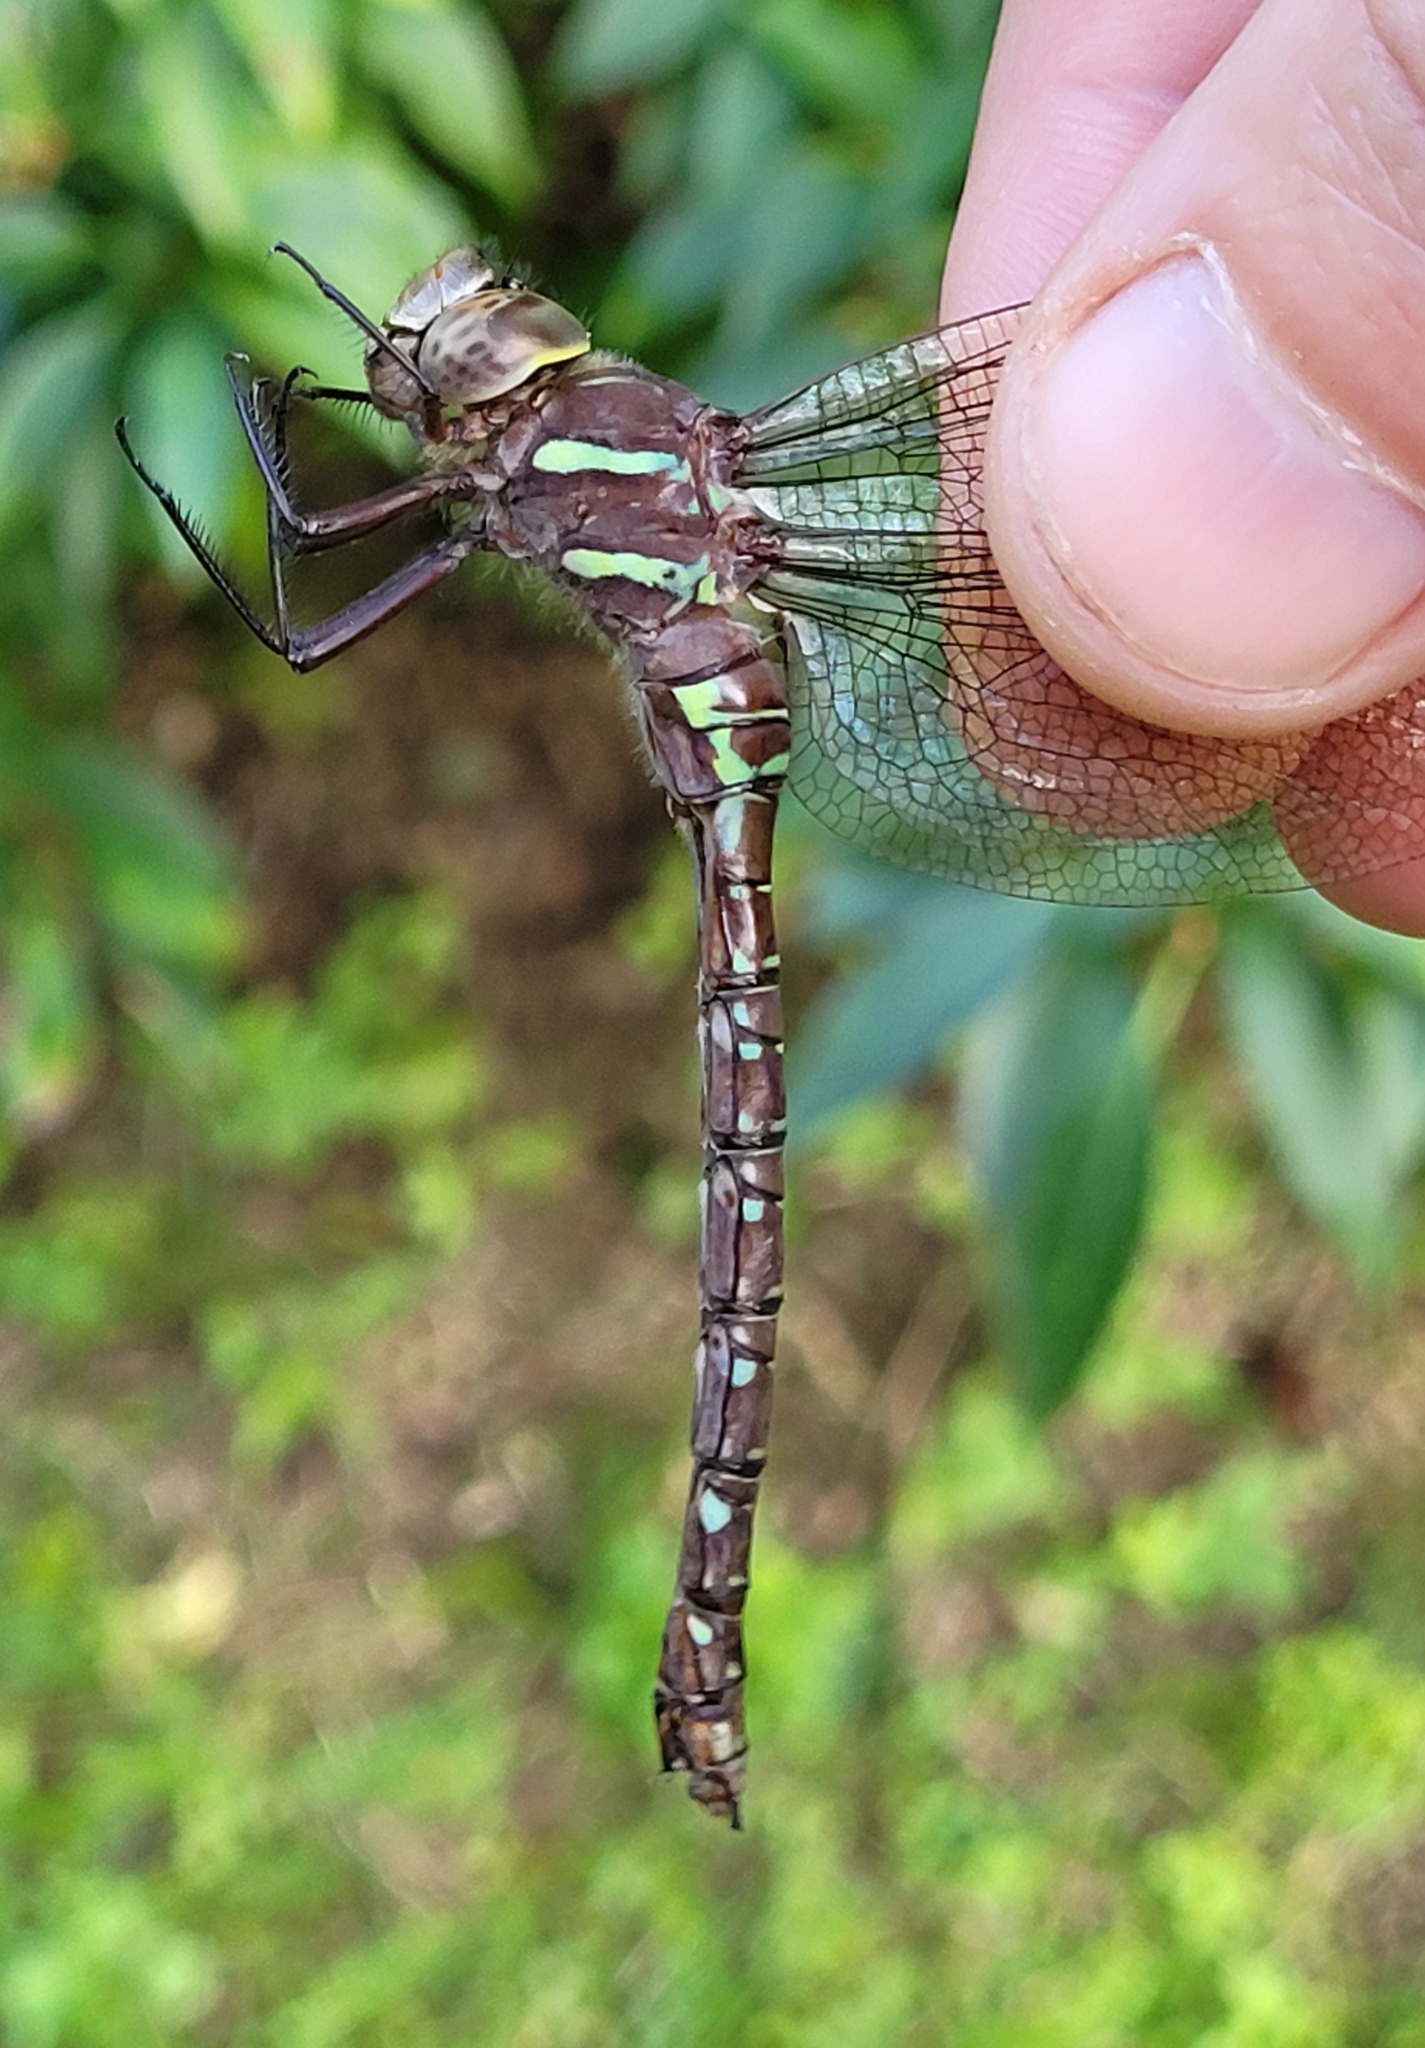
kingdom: Animalia
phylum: Arthropoda
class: Insecta
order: Odonata
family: Aeshnidae
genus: Aeshna
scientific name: Aeshna umbrosa
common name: Shadow darner
